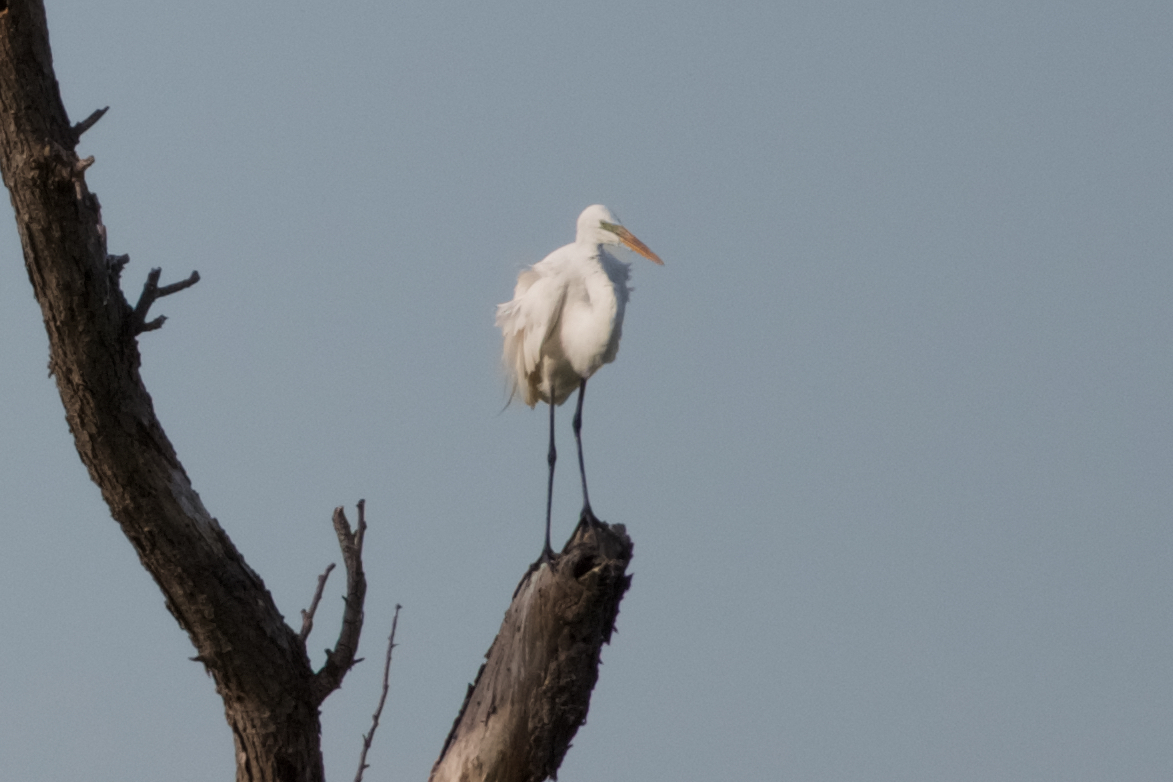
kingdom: Animalia
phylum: Chordata
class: Aves
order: Pelecaniformes
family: Ardeidae
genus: Ardea
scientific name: Ardea alba
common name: Great egret
